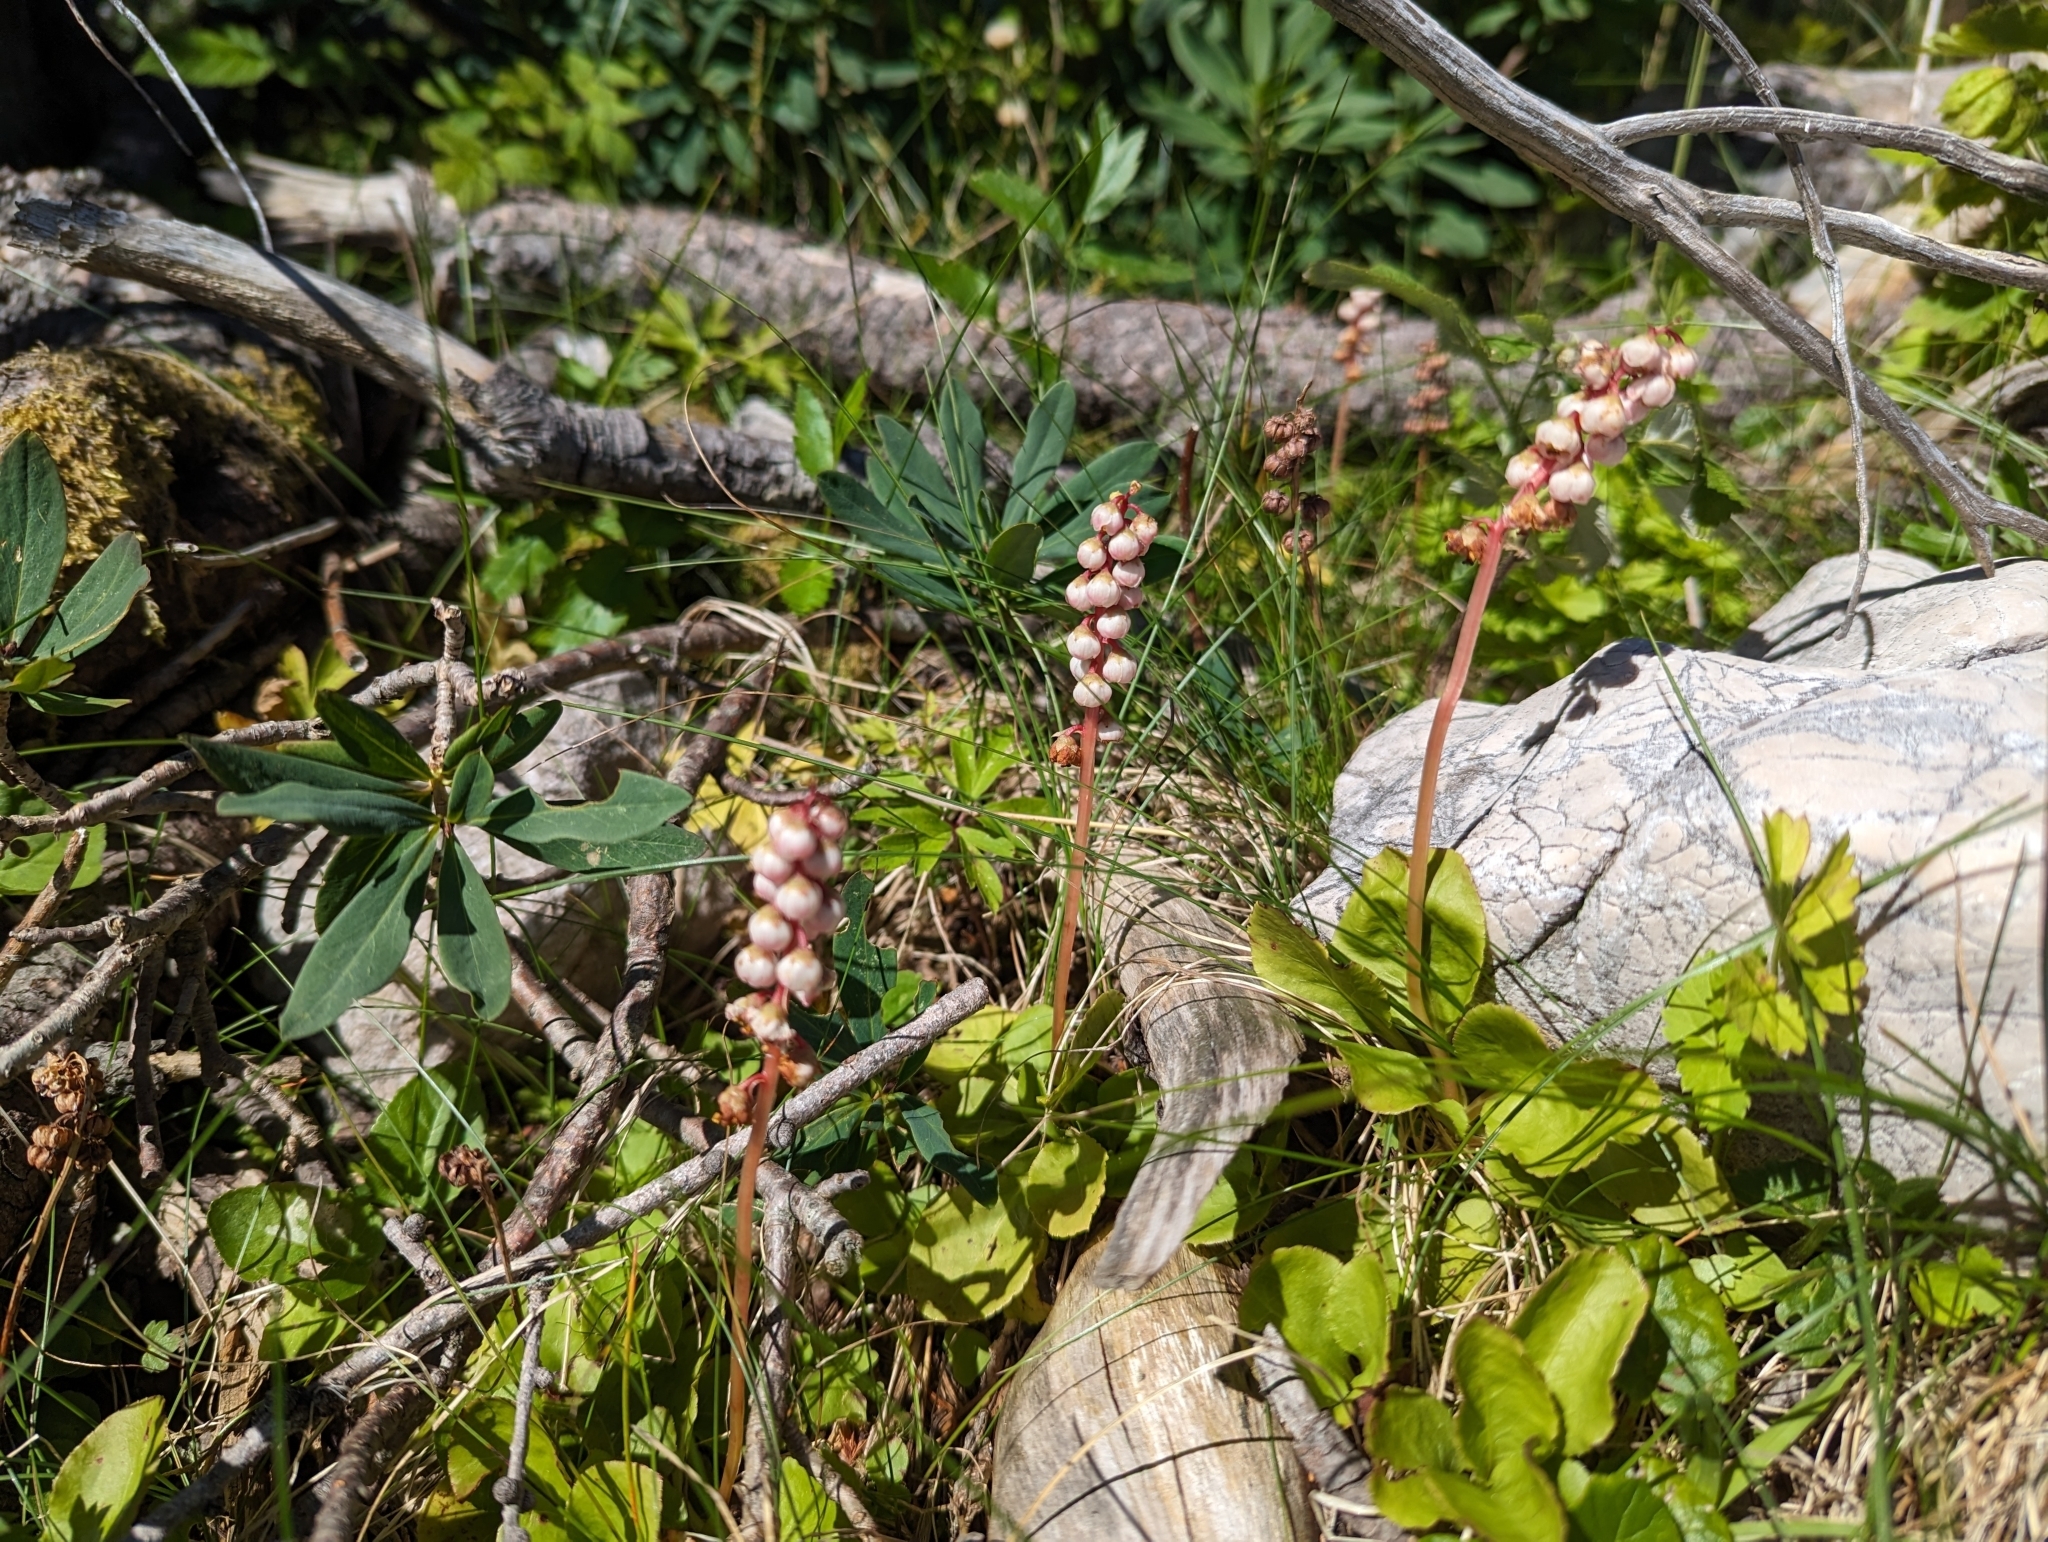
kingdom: Plantae
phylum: Tracheophyta
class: Magnoliopsida
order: Ericales
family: Ericaceae
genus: Pyrola
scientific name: Pyrola minor
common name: Common wintergreen
